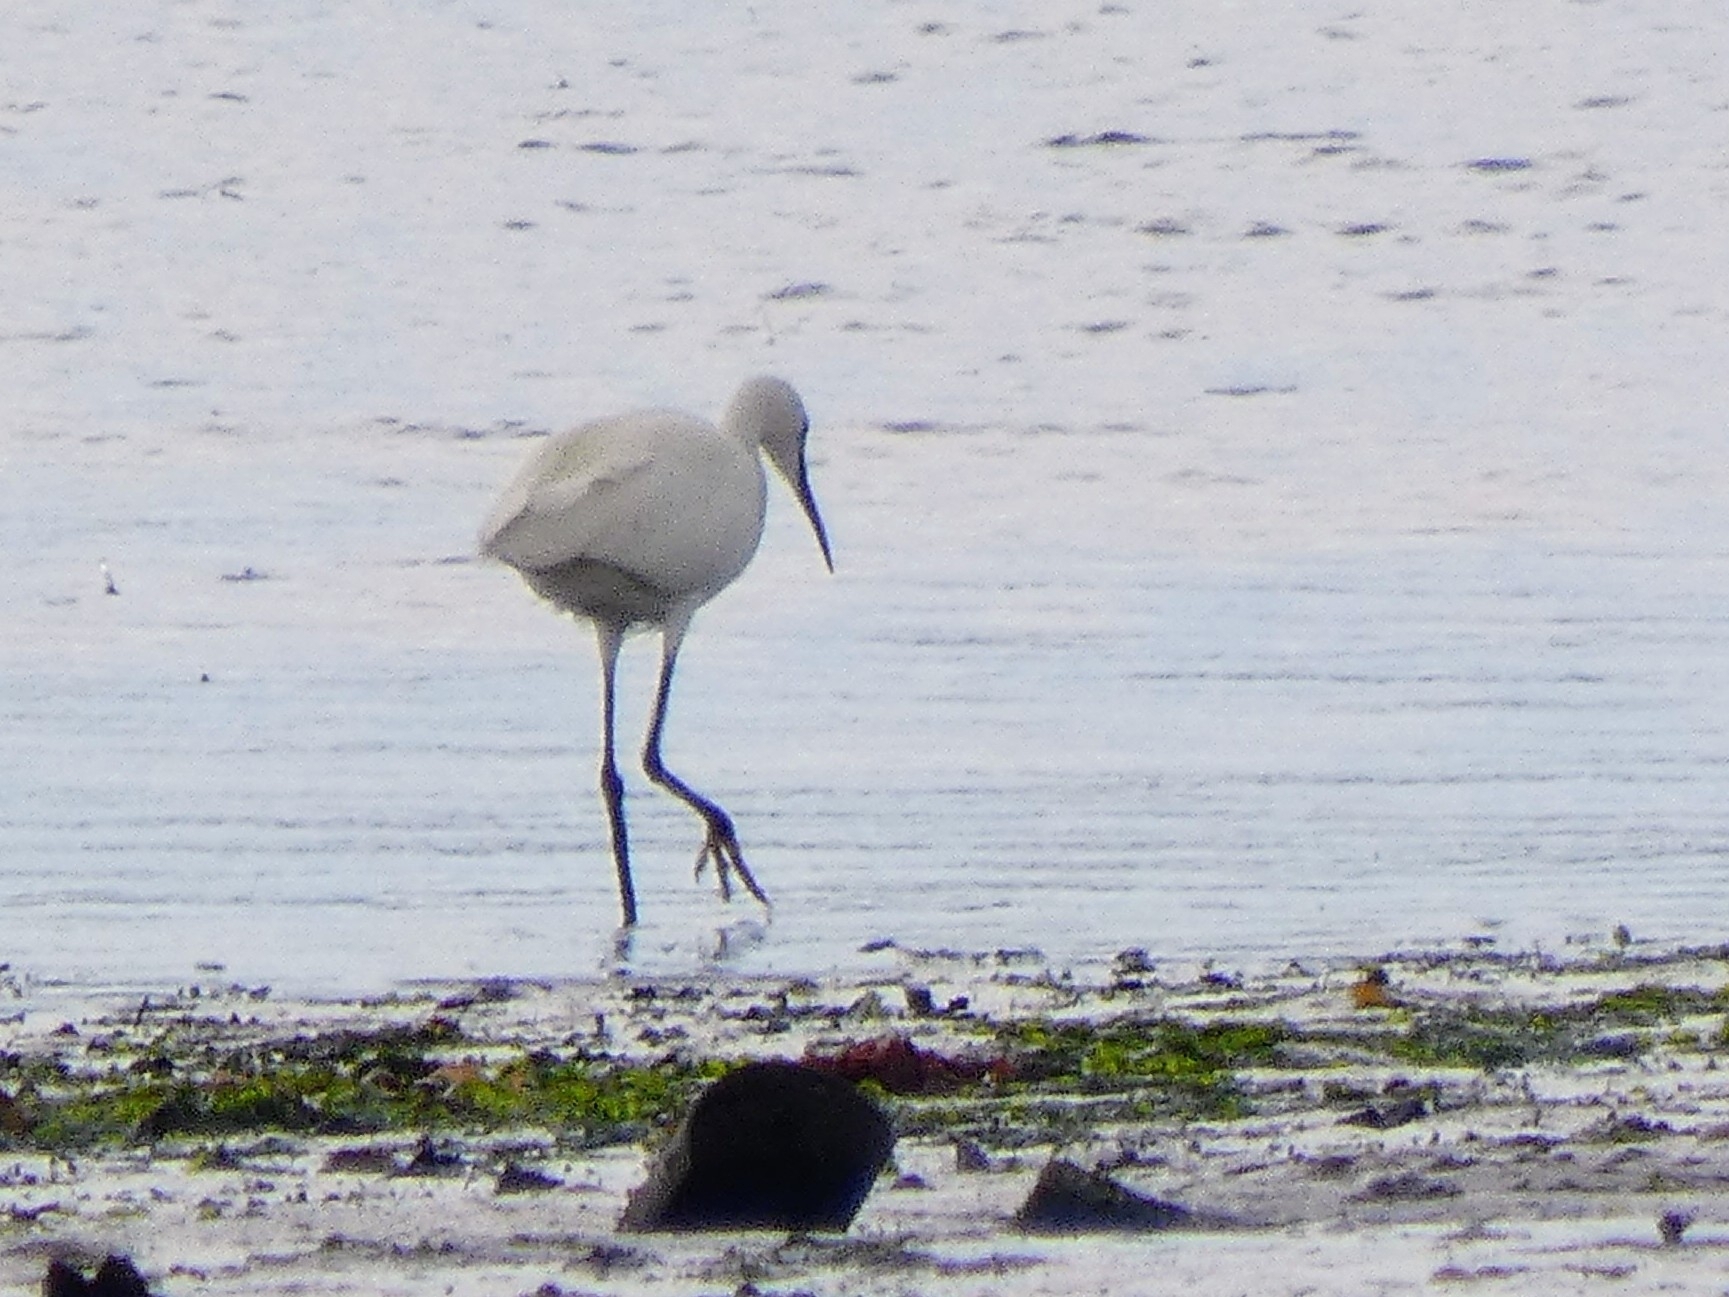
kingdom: Animalia
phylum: Chordata
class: Aves
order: Pelecaniformes
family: Ardeidae
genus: Egretta
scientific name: Egretta garzetta
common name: Little egret
